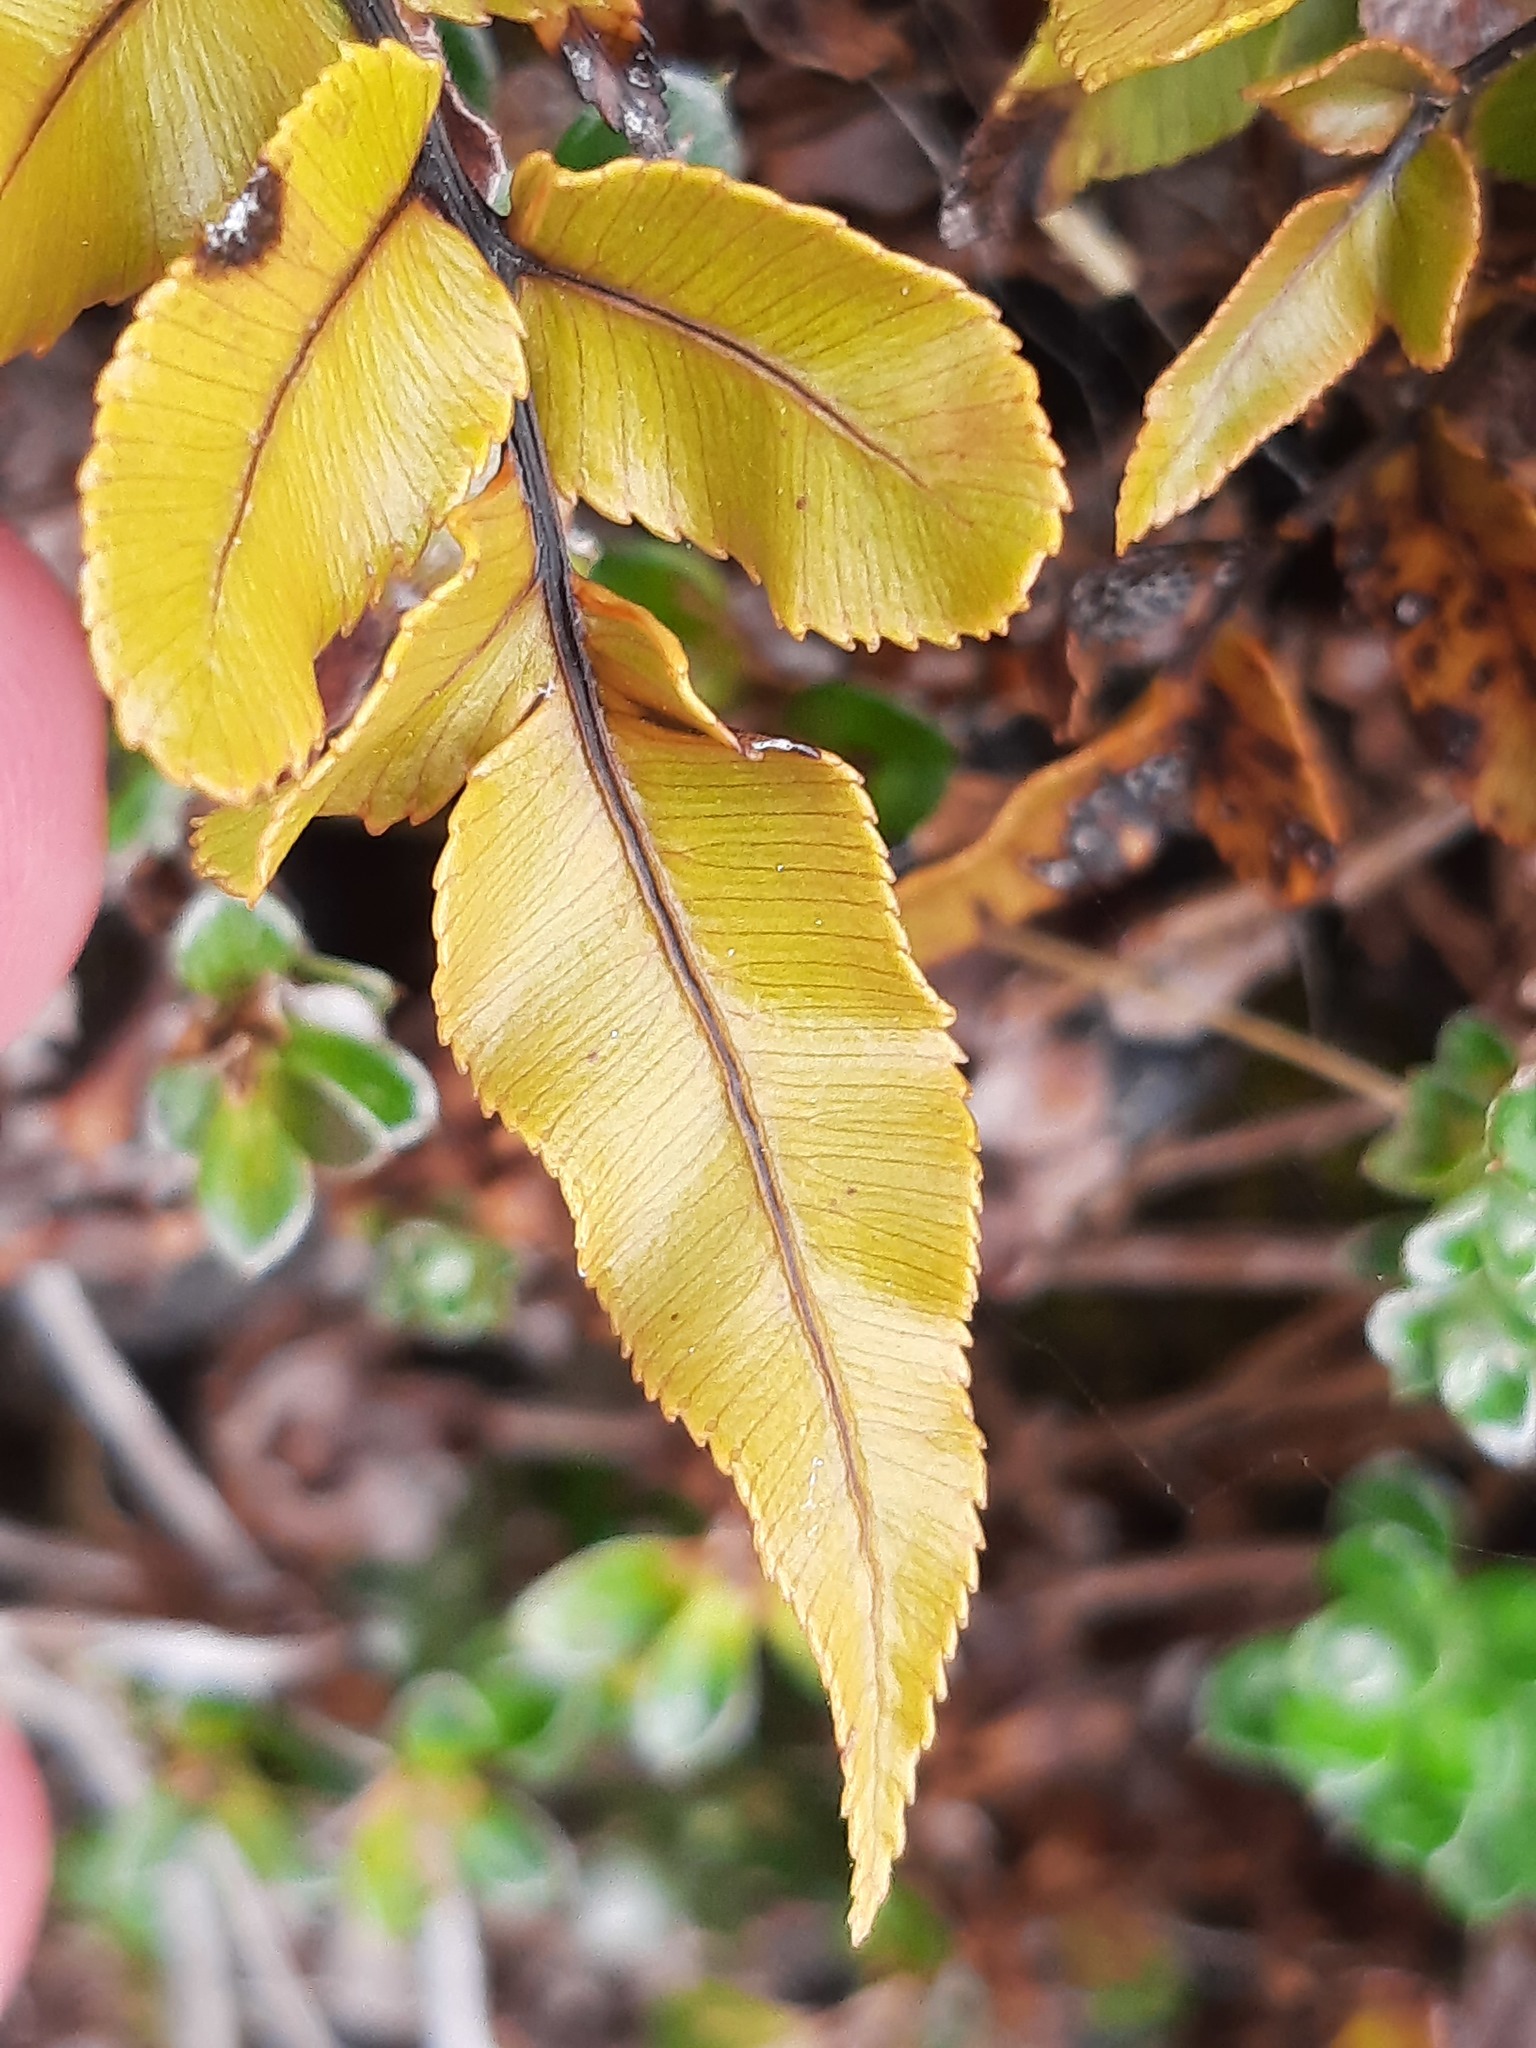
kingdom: Plantae
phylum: Tracheophyta
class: Polypodiopsida
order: Polypodiales
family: Blechnaceae
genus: Parablechnum
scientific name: Parablechnum procerum
